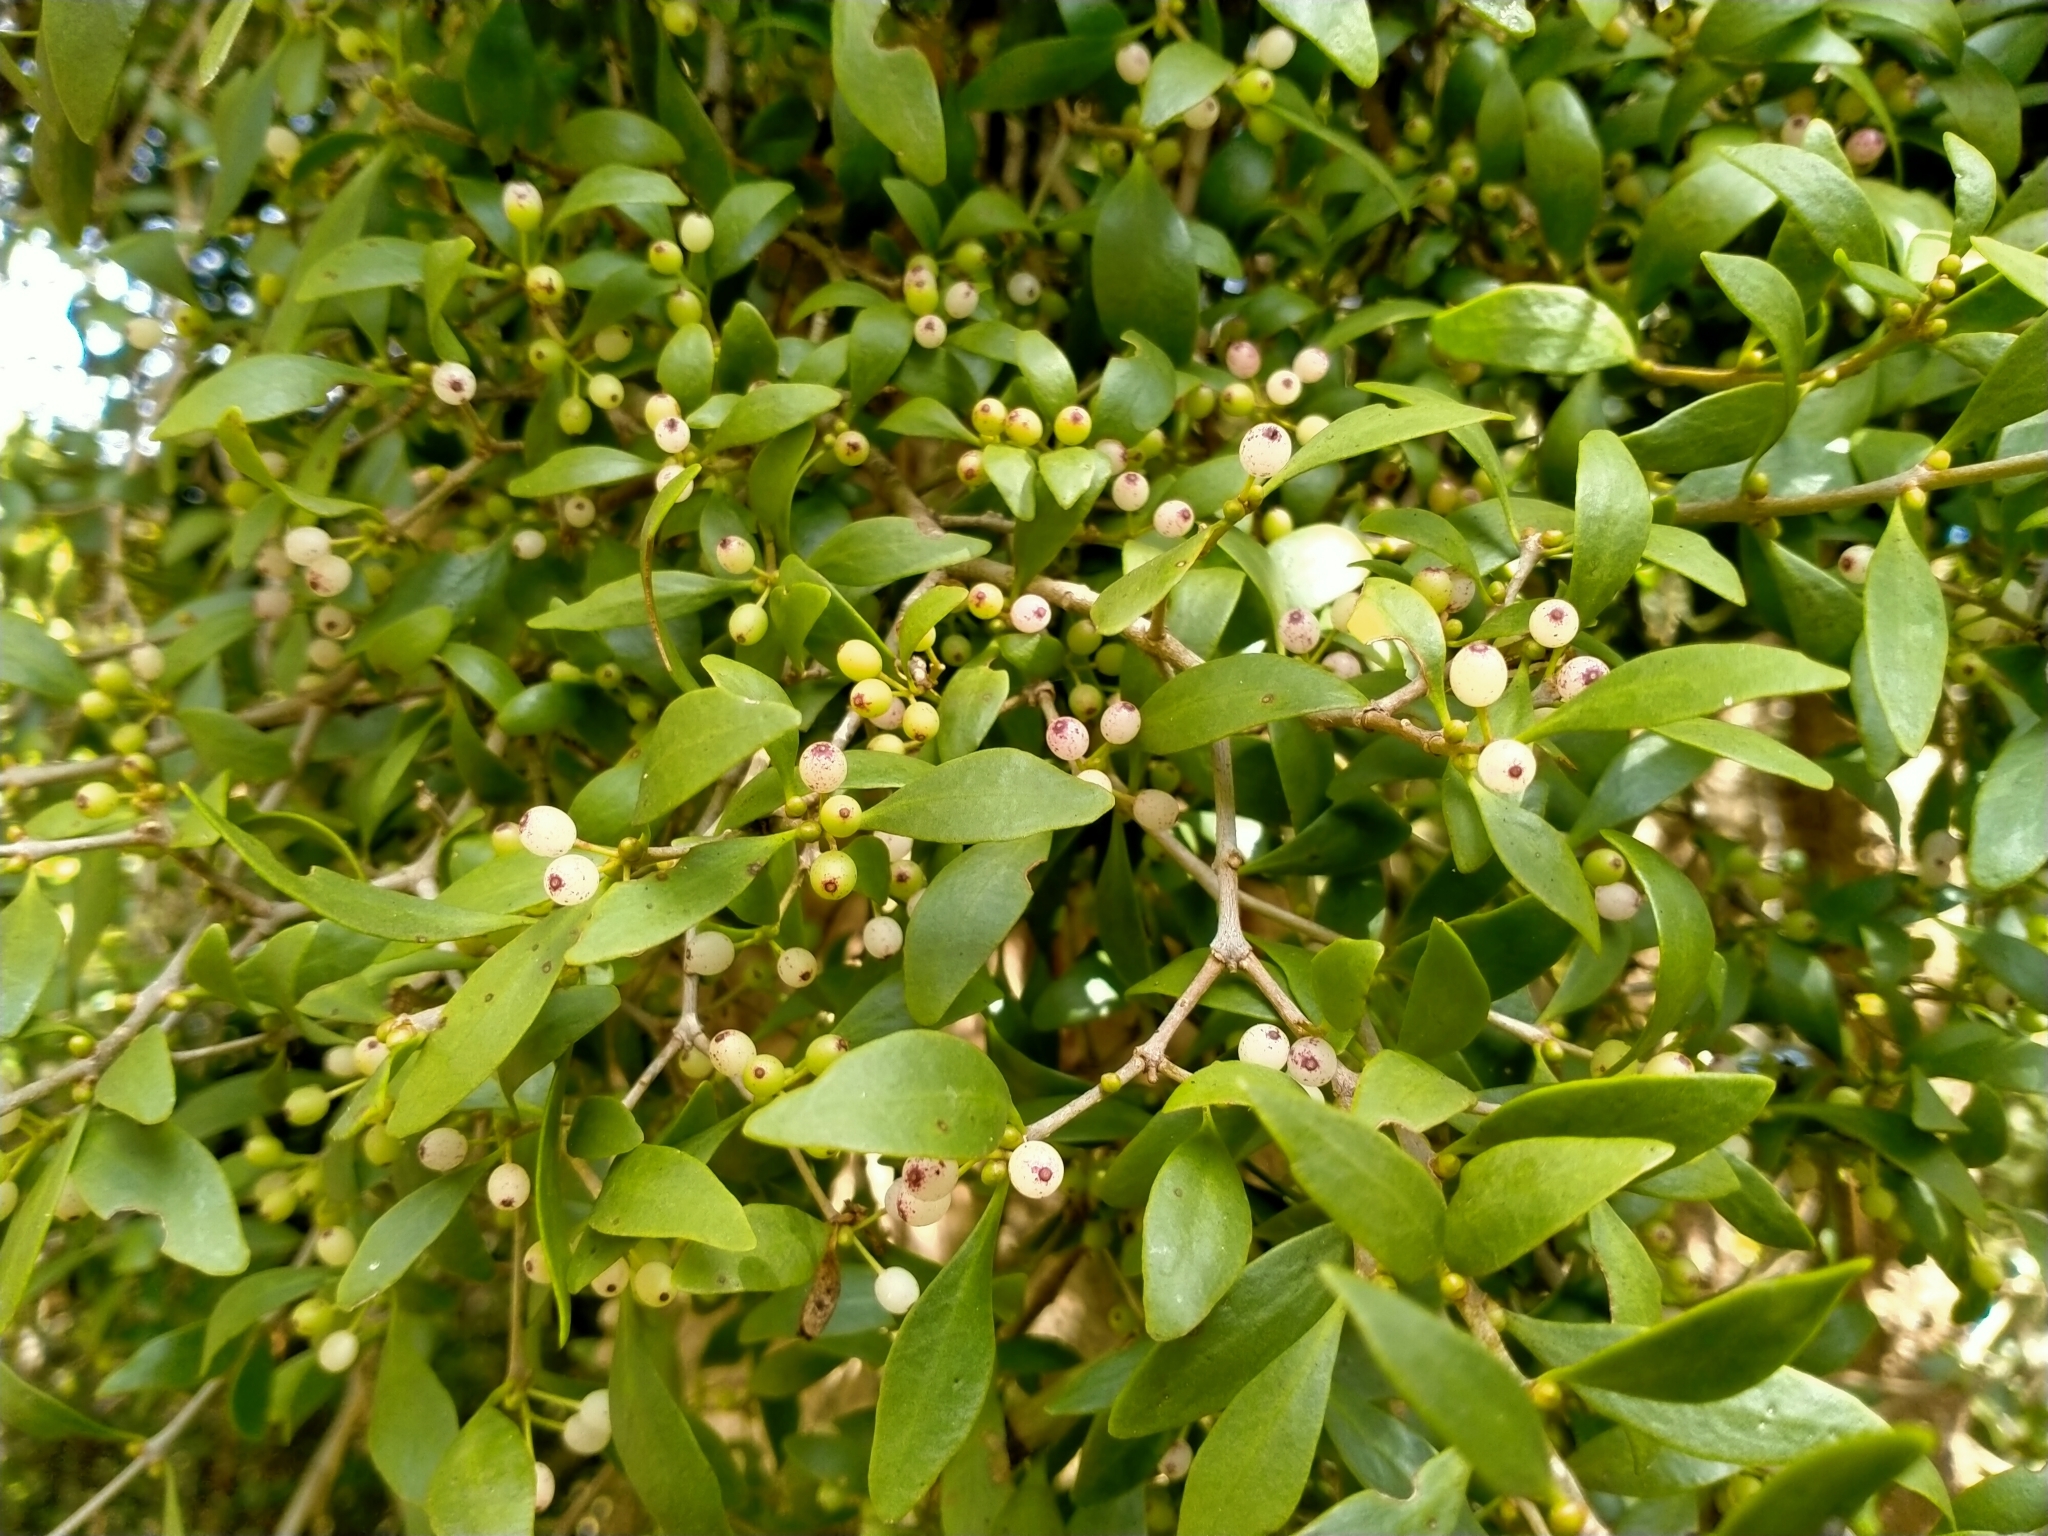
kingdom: Plantae
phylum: Tracheophyta
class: Magnoliopsida
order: Santalales
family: Loranthaceae
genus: Tupeia
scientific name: Tupeia antarctica
